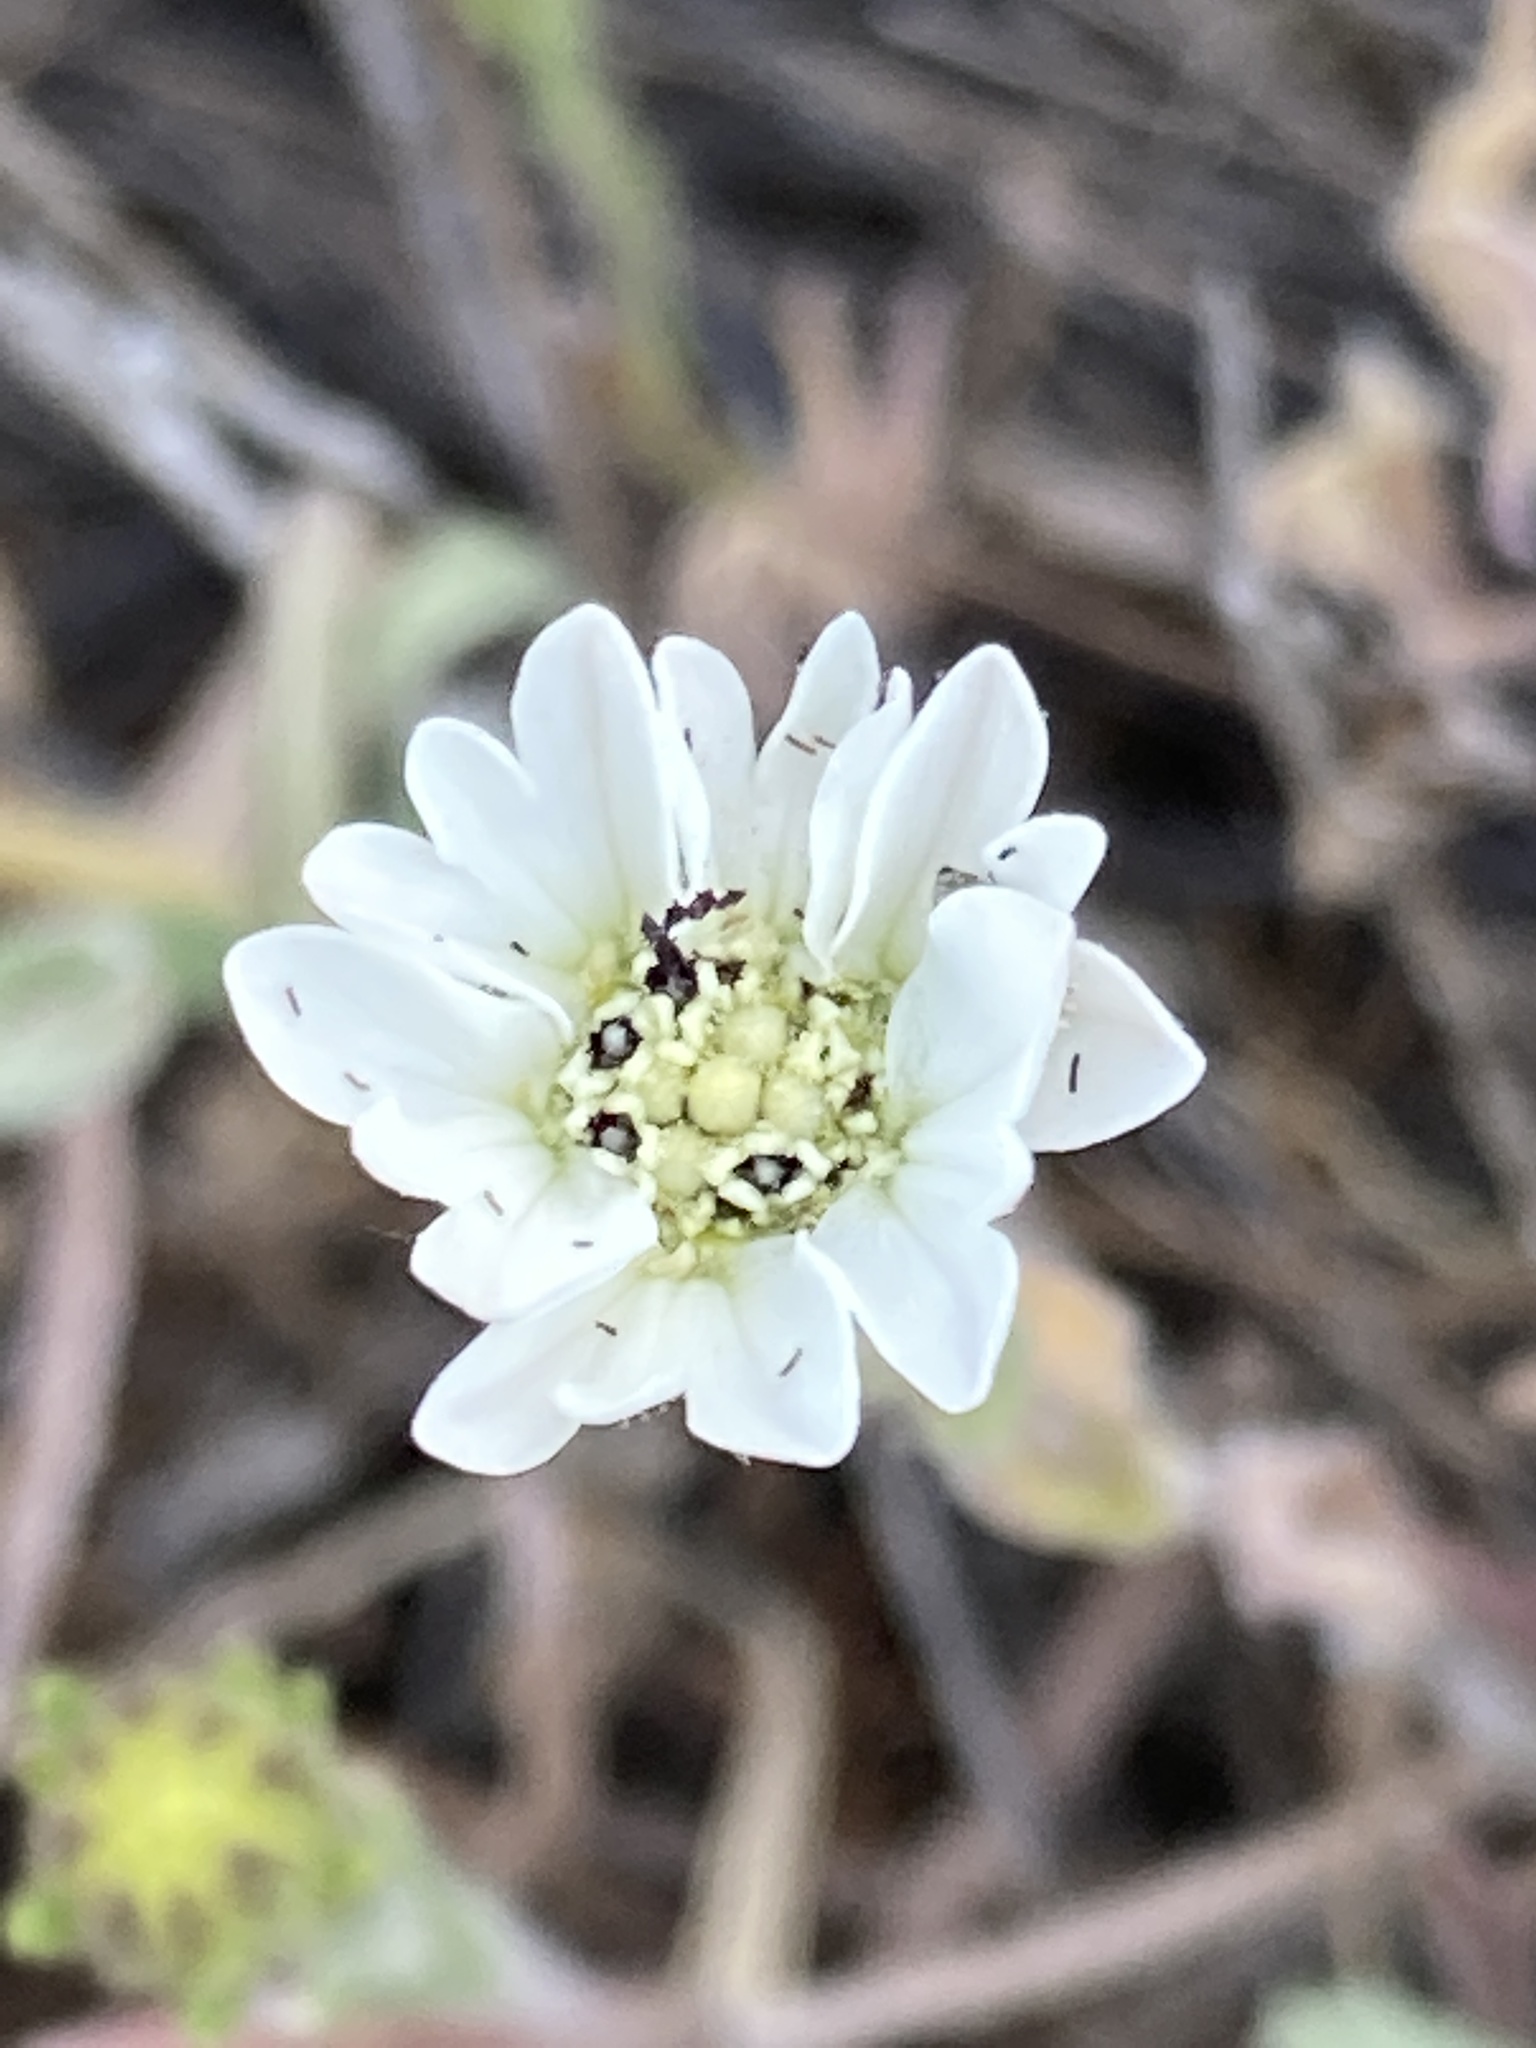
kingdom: Plantae
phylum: Tracheophyta
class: Magnoliopsida
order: Asterales
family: Asteraceae
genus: Hemizonia
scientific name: Hemizonia congesta
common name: Hayfield tarweed
